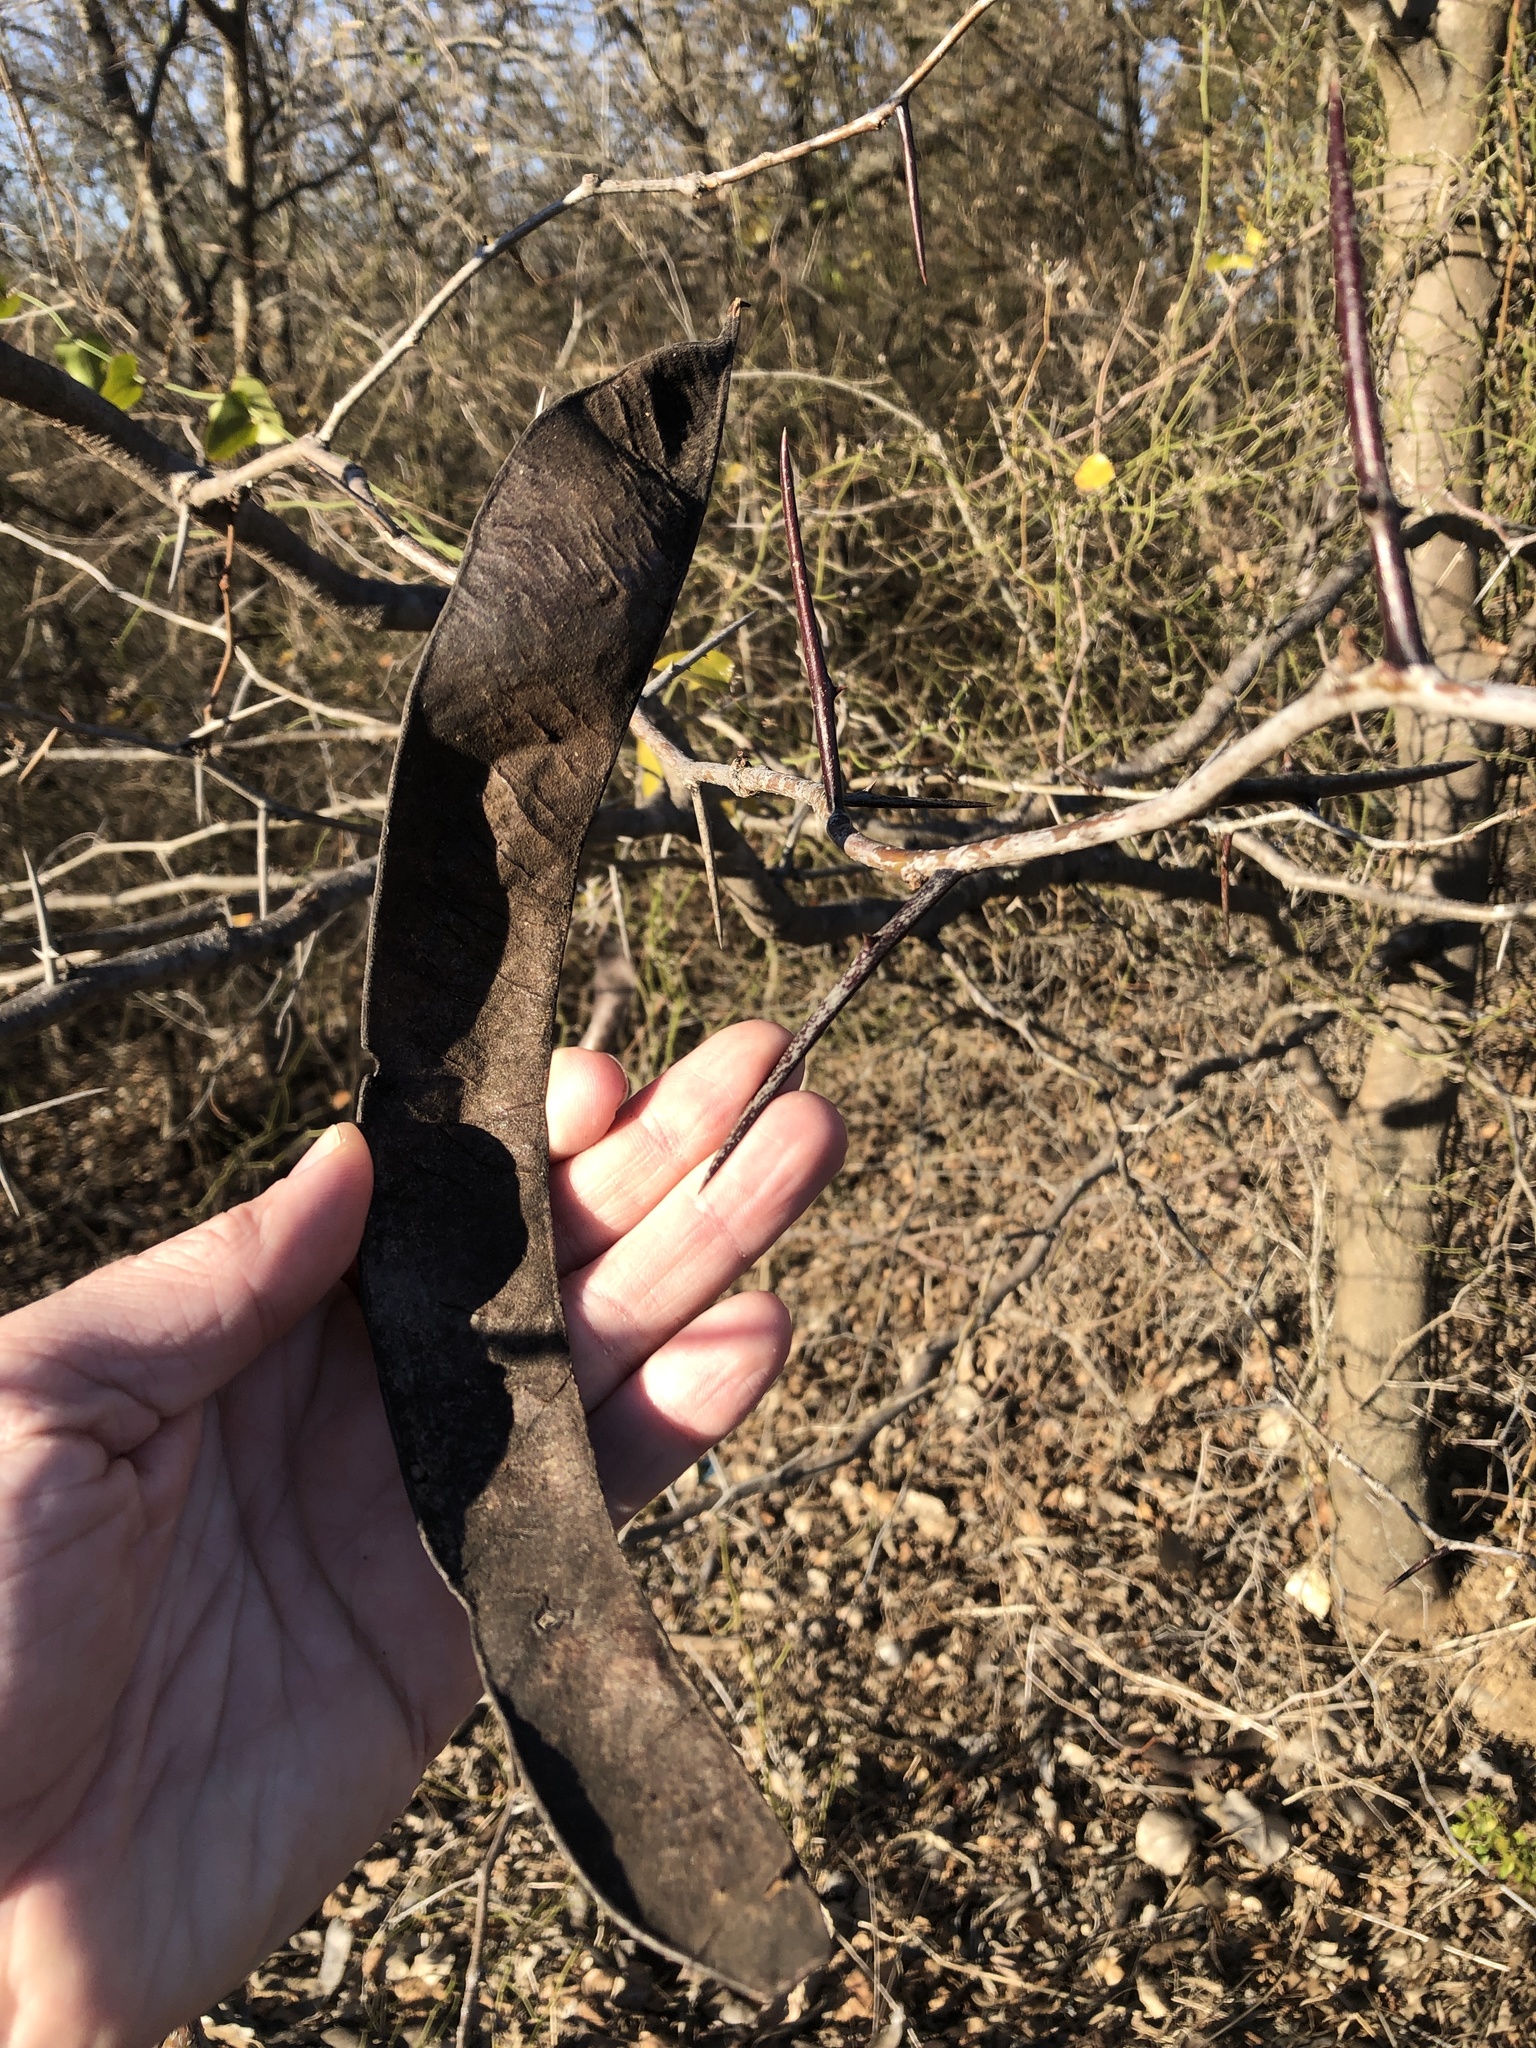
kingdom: Plantae
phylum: Tracheophyta
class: Magnoliopsida
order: Fabales
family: Fabaceae
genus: Gleditsia
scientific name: Gleditsia triacanthos
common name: Common honeylocust
